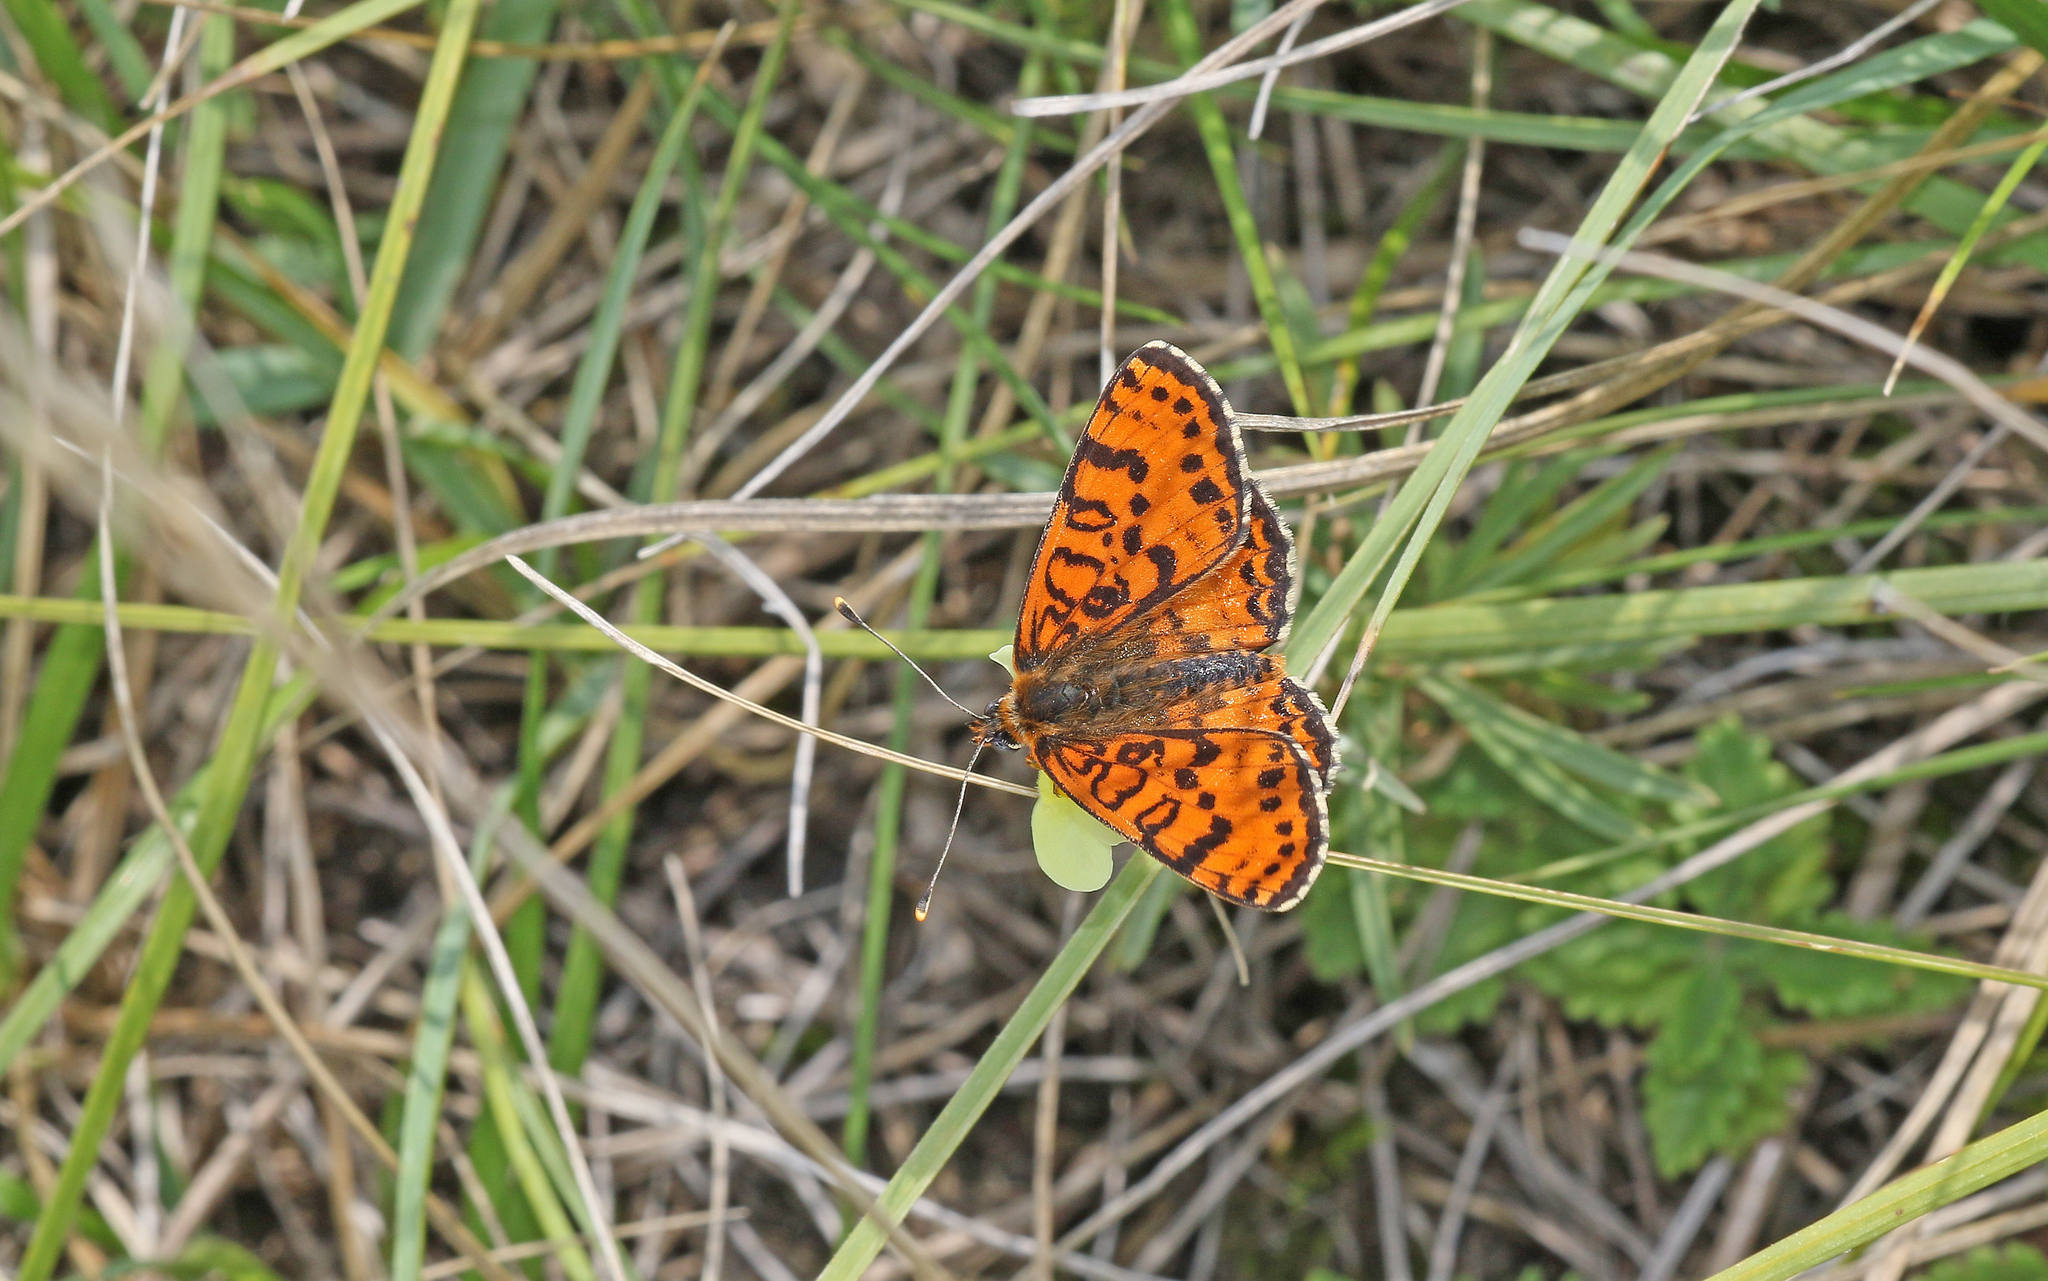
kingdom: Animalia
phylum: Arthropoda
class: Insecta
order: Lepidoptera
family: Nymphalidae
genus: Melitaea
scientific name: Melitaea didyma
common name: Spotted fritillary
